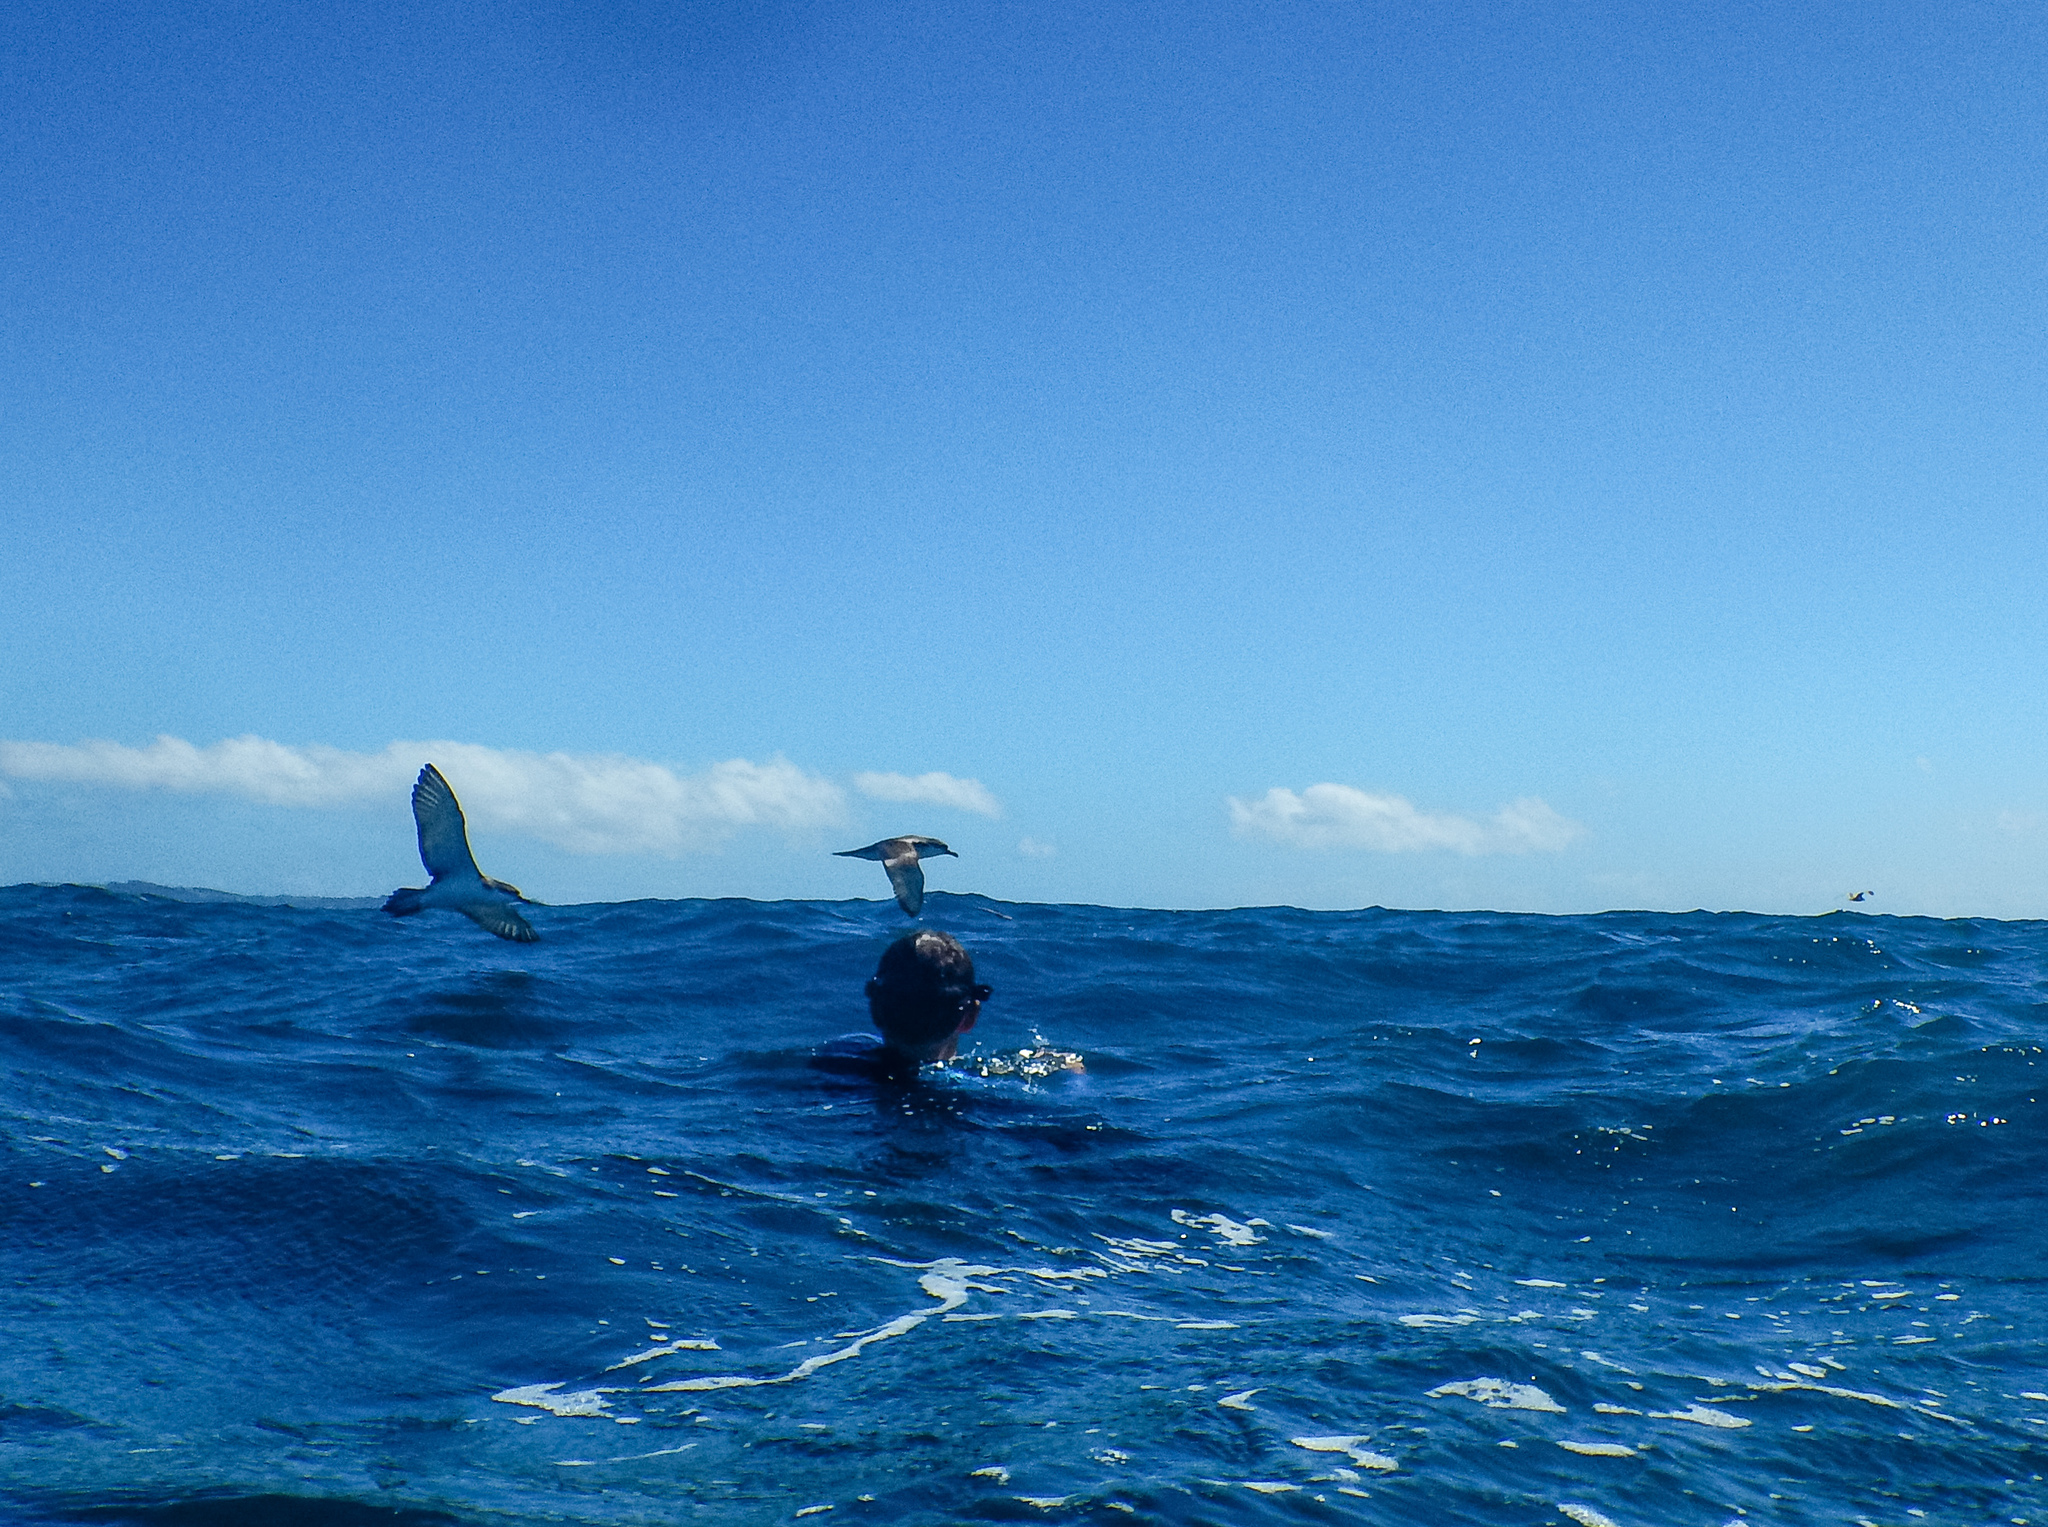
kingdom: Animalia
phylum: Chordata
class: Aves
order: Procellariiformes
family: Procellariidae
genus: Puffinus
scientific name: Puffinus bulleri
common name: Buller's shearwater
